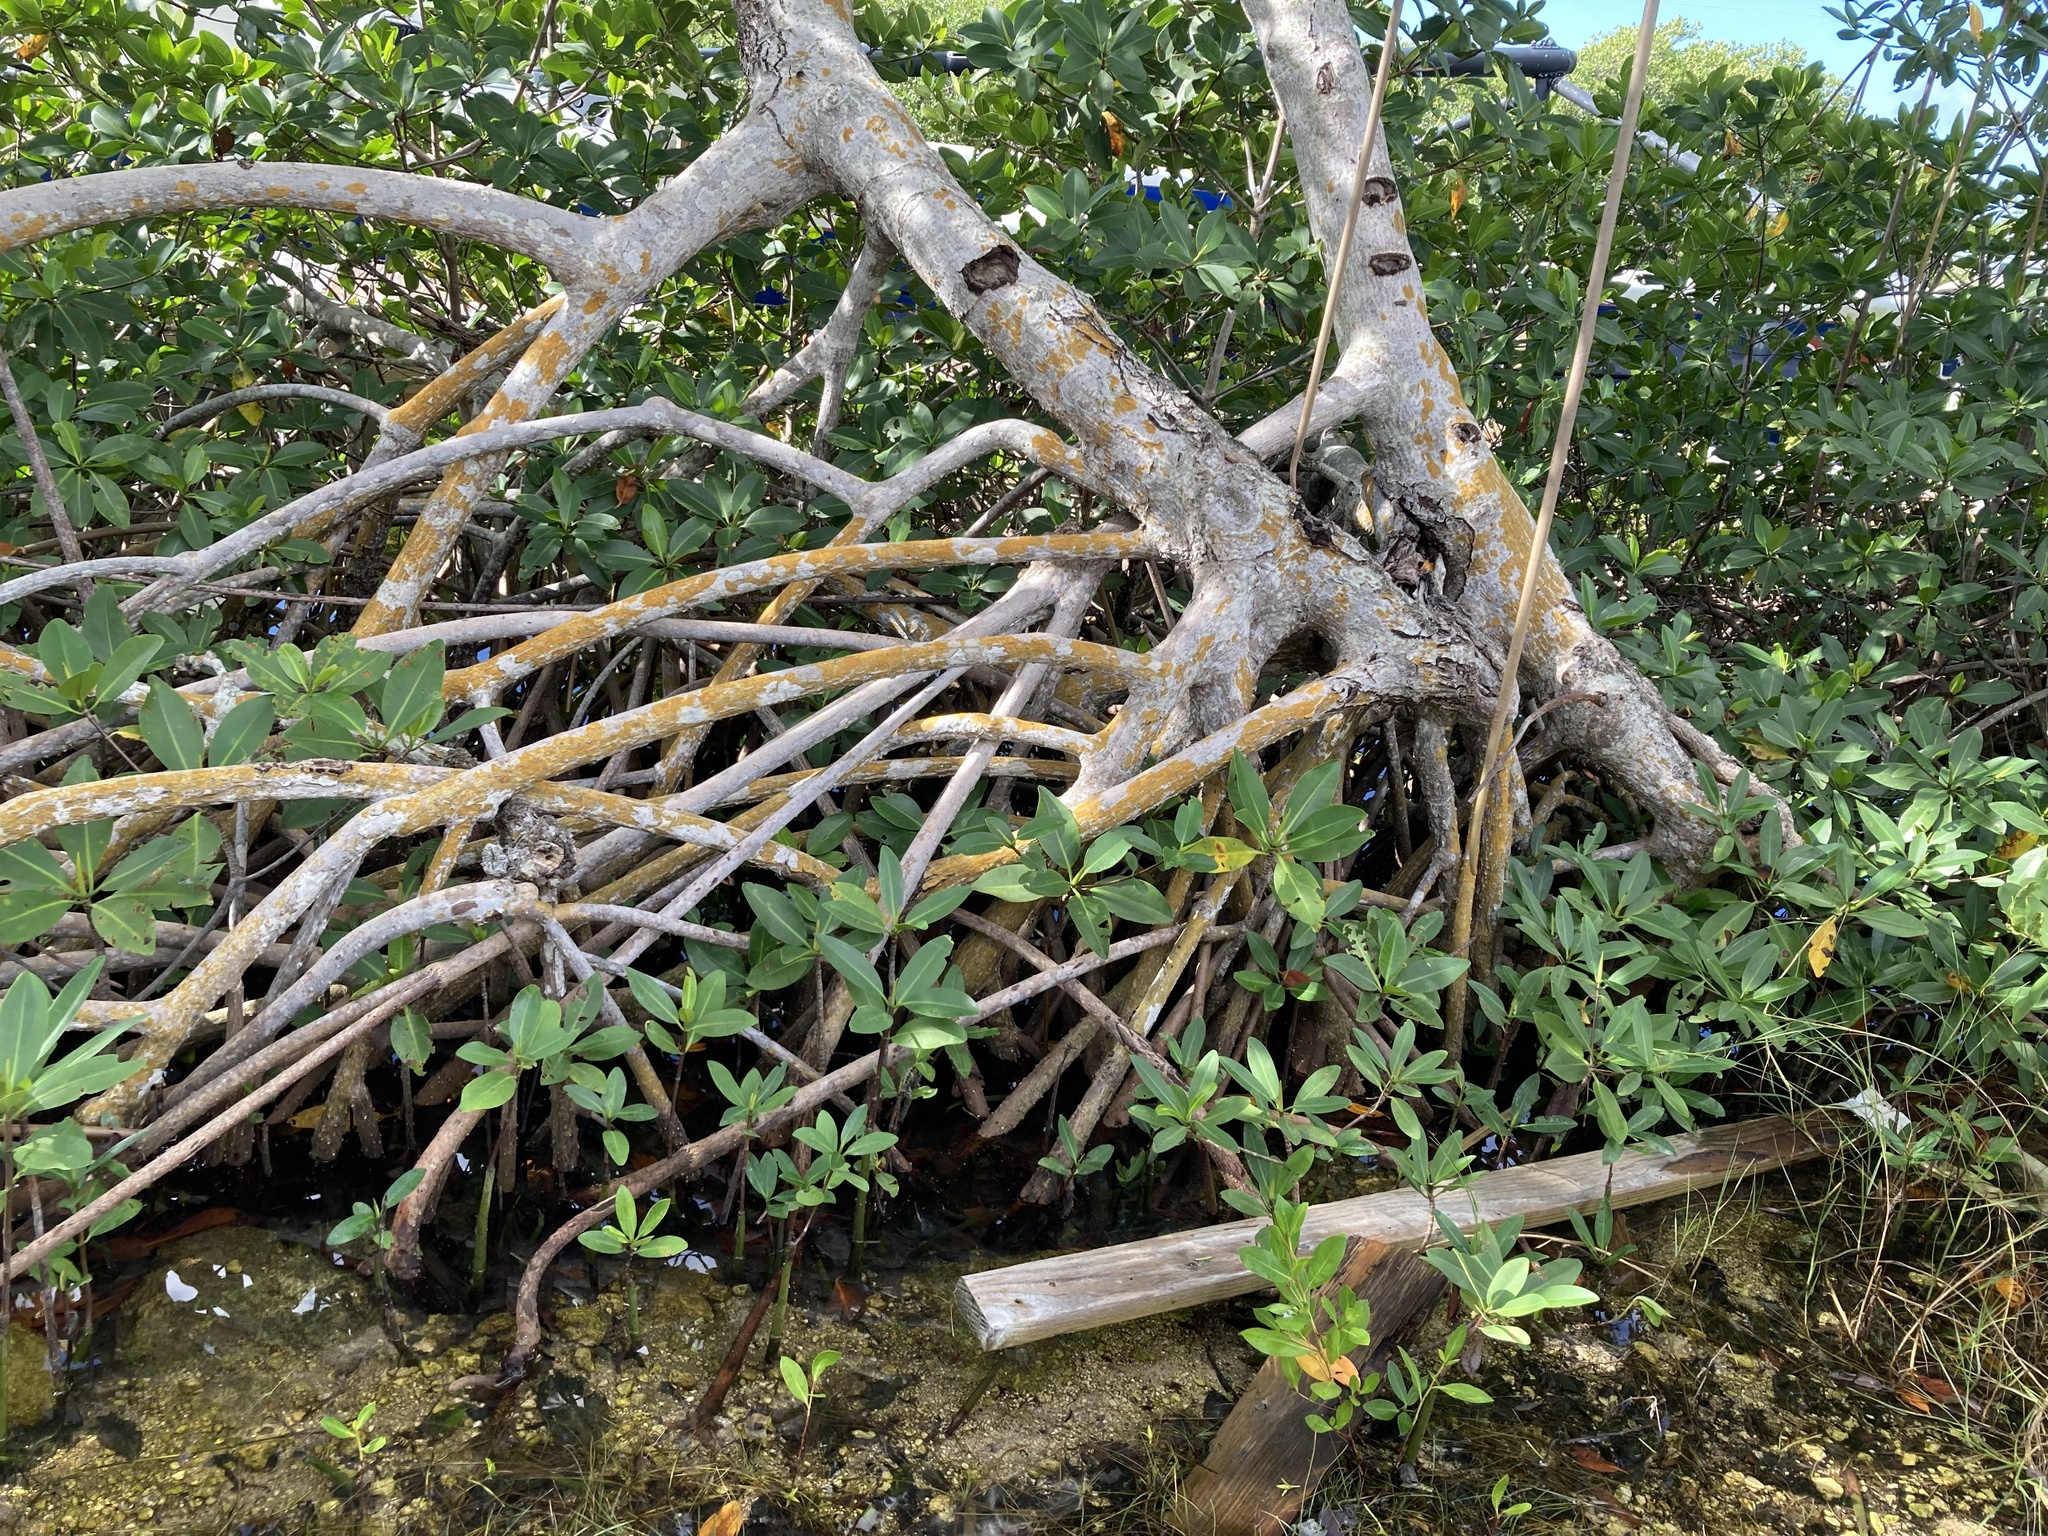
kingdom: Plantae
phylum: Tracheophyta
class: Magnoliopsida
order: Malpighiales
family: Rhizophoraceae
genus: Rhizophora
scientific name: Rhizophora mangle
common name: Red mangrove
